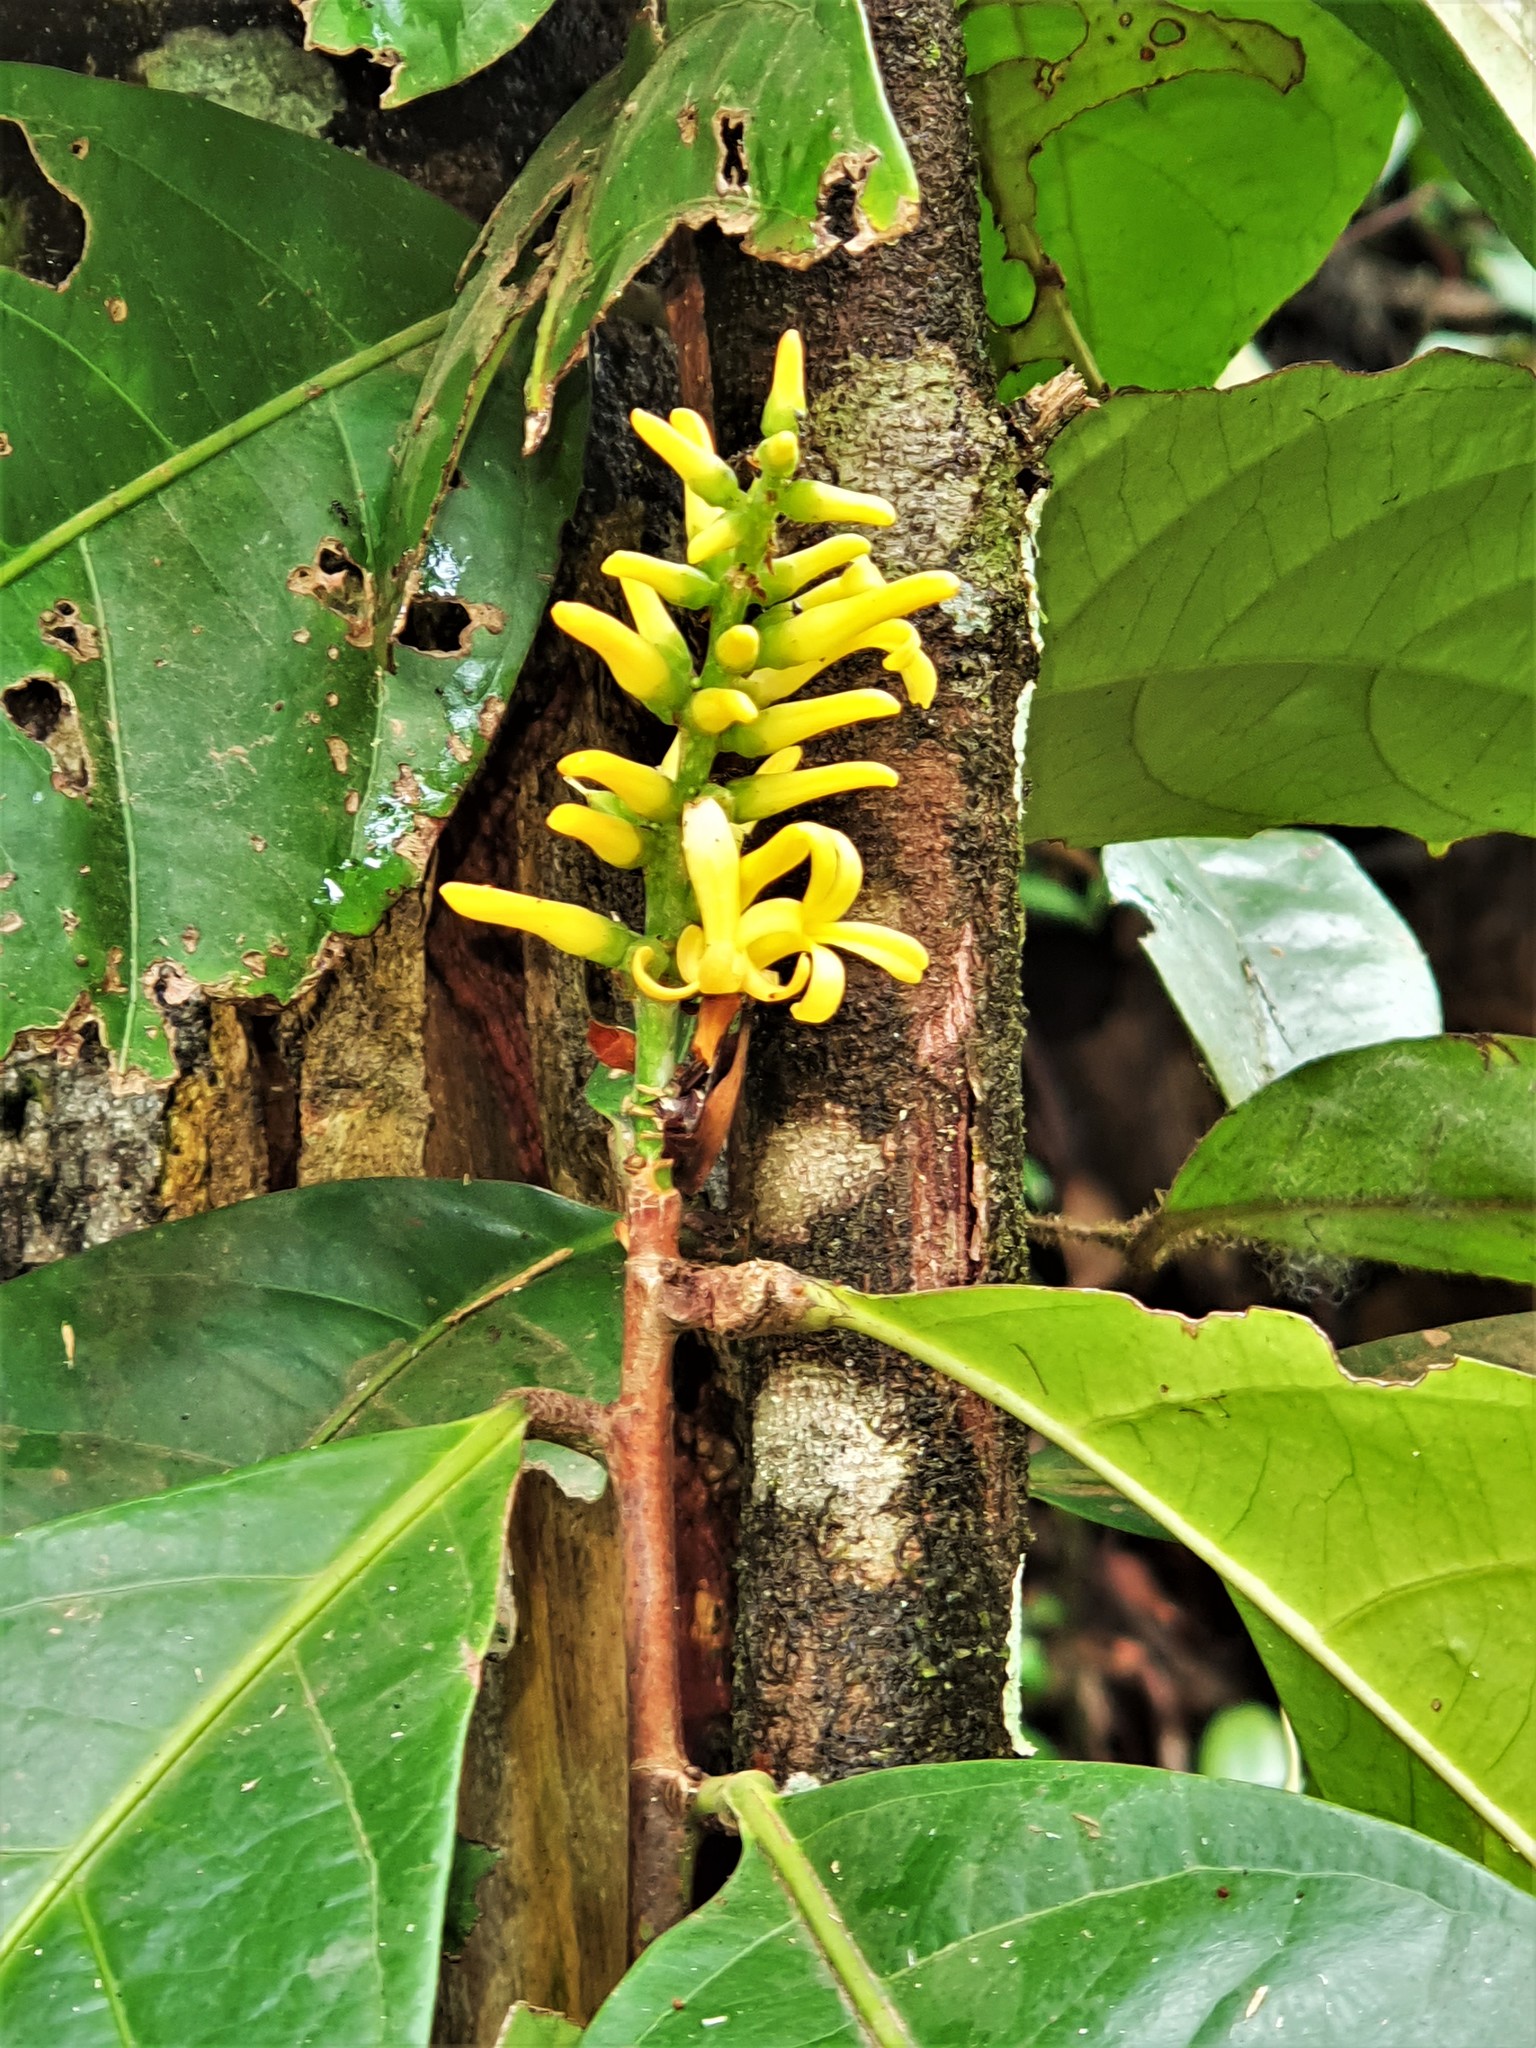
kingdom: Plantae
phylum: Tracheophyta
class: Magnoliopsida
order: Malpighiales
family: Violaceae
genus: Paypayrola
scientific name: Paypayrola guianensis
